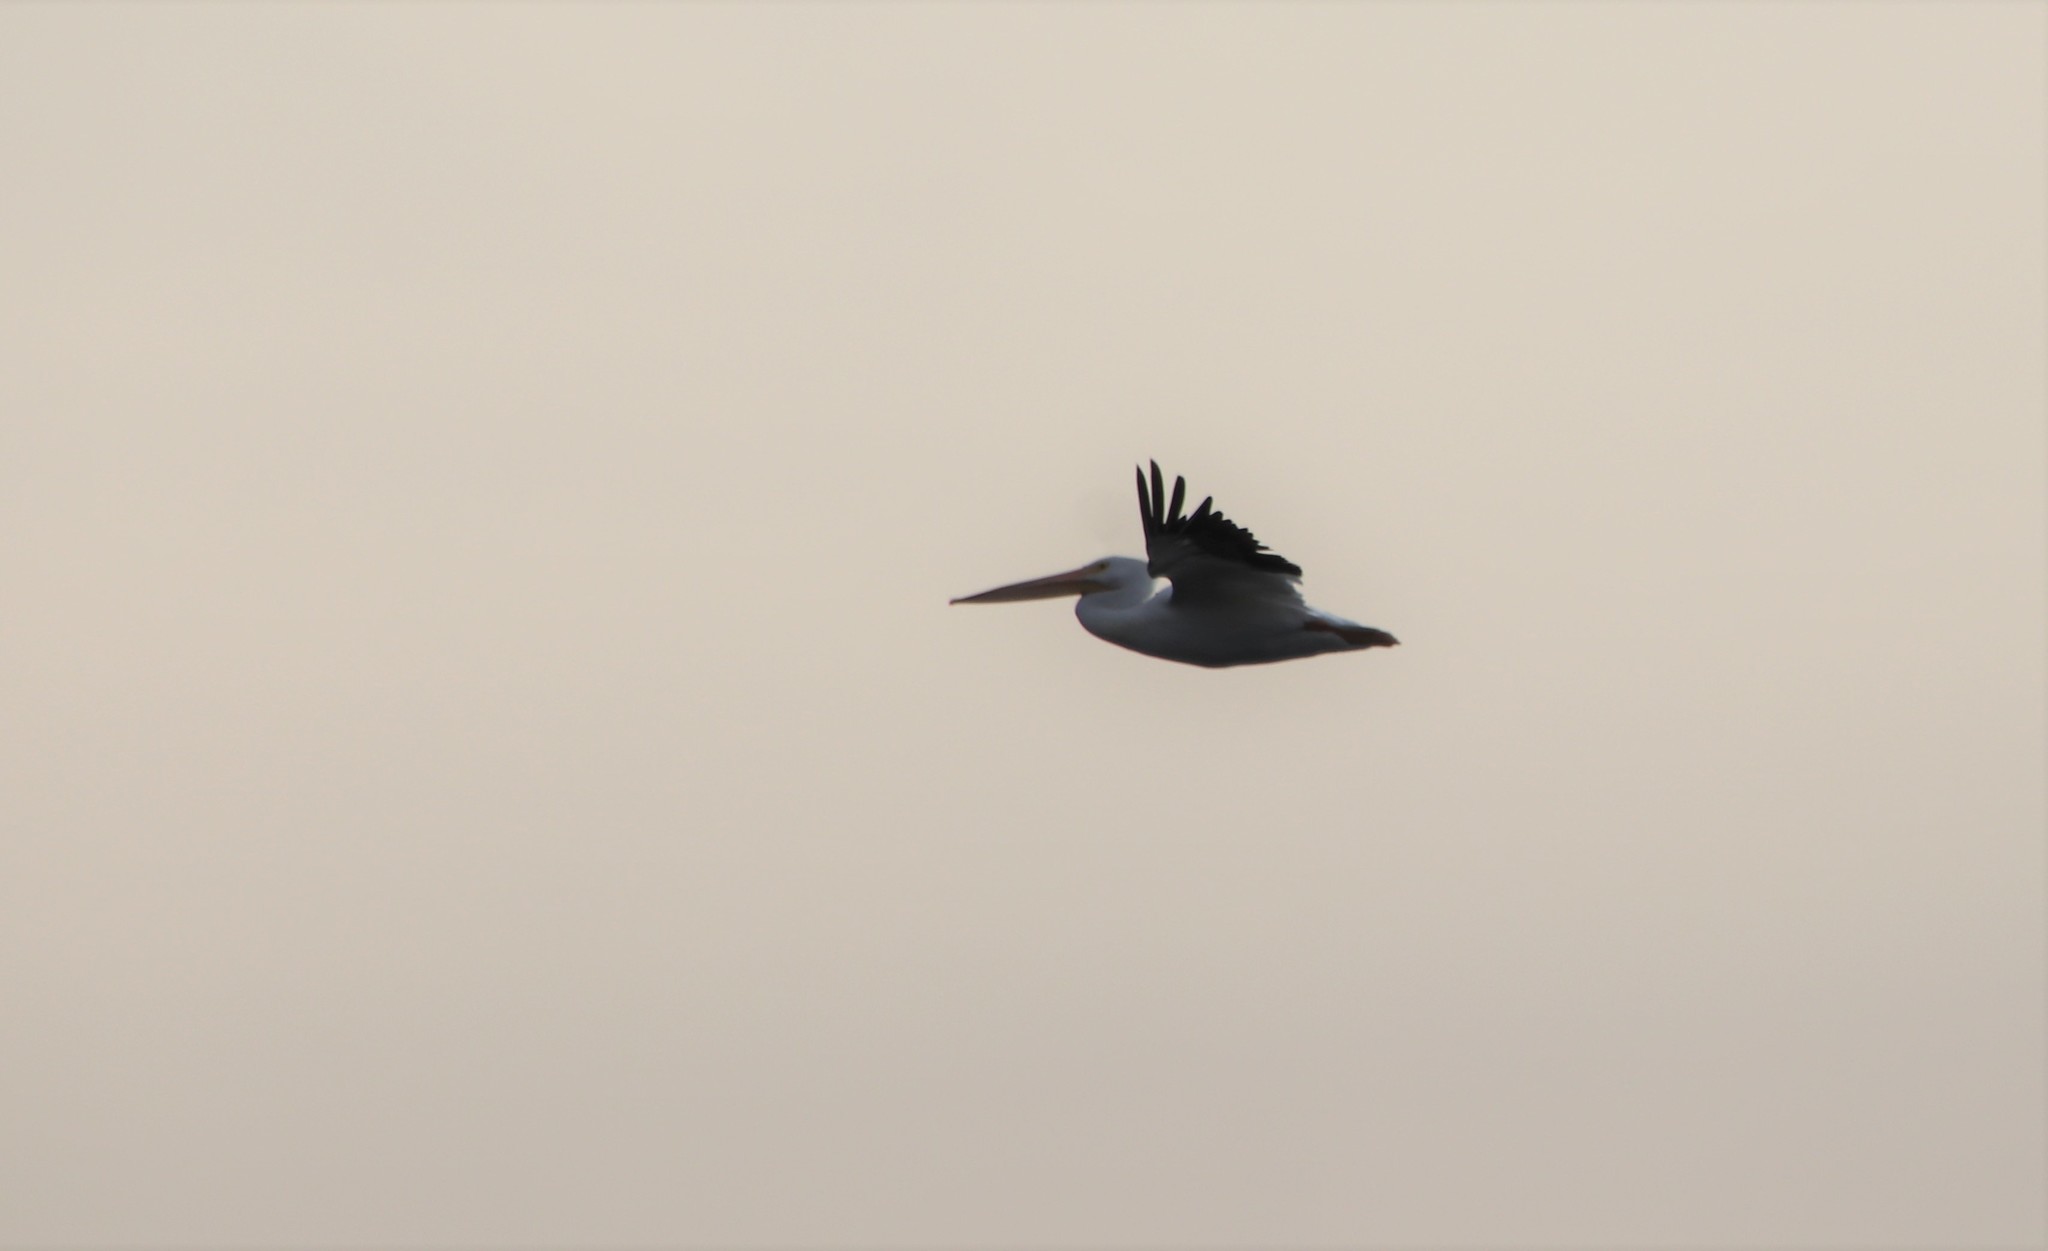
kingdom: Animalia
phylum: Chordata
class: Aves
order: Pelecaniformes
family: Pelecanidae
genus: Pelecanus
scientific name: Pelecanus erythrorhynchos
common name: American white pelican
